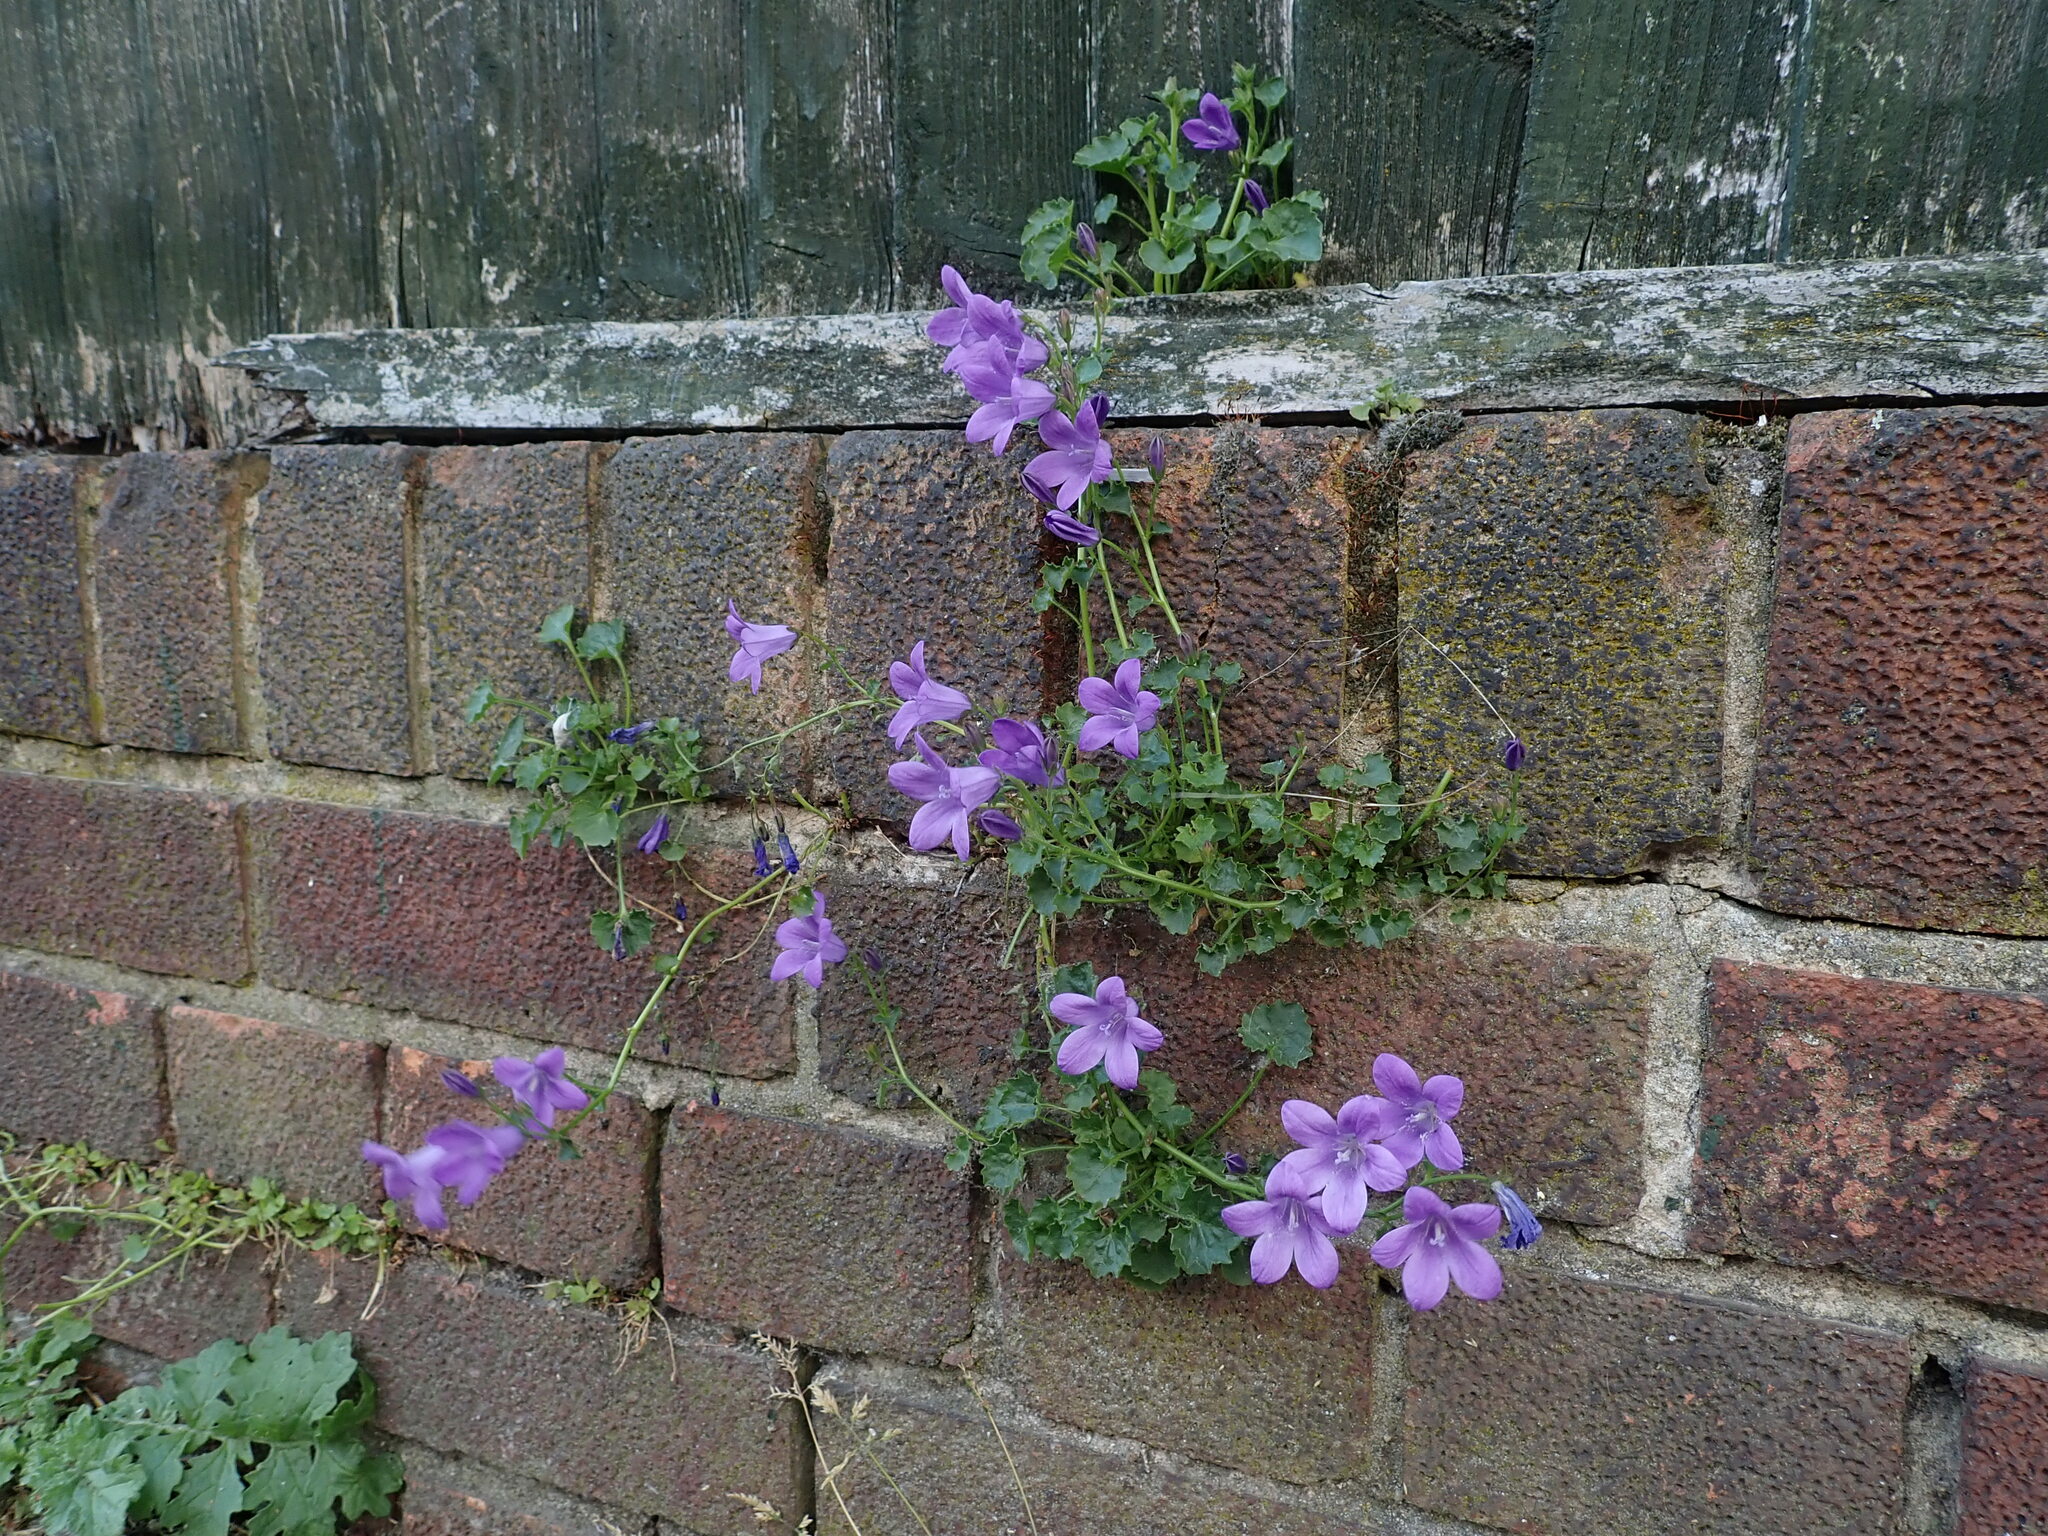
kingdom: Plantae
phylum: Tracheophyta
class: Magnoliopsida
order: Asterales
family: Campanulaceae
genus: Campanula
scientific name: Campanula portenschlagiana
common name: Adria bellflower
